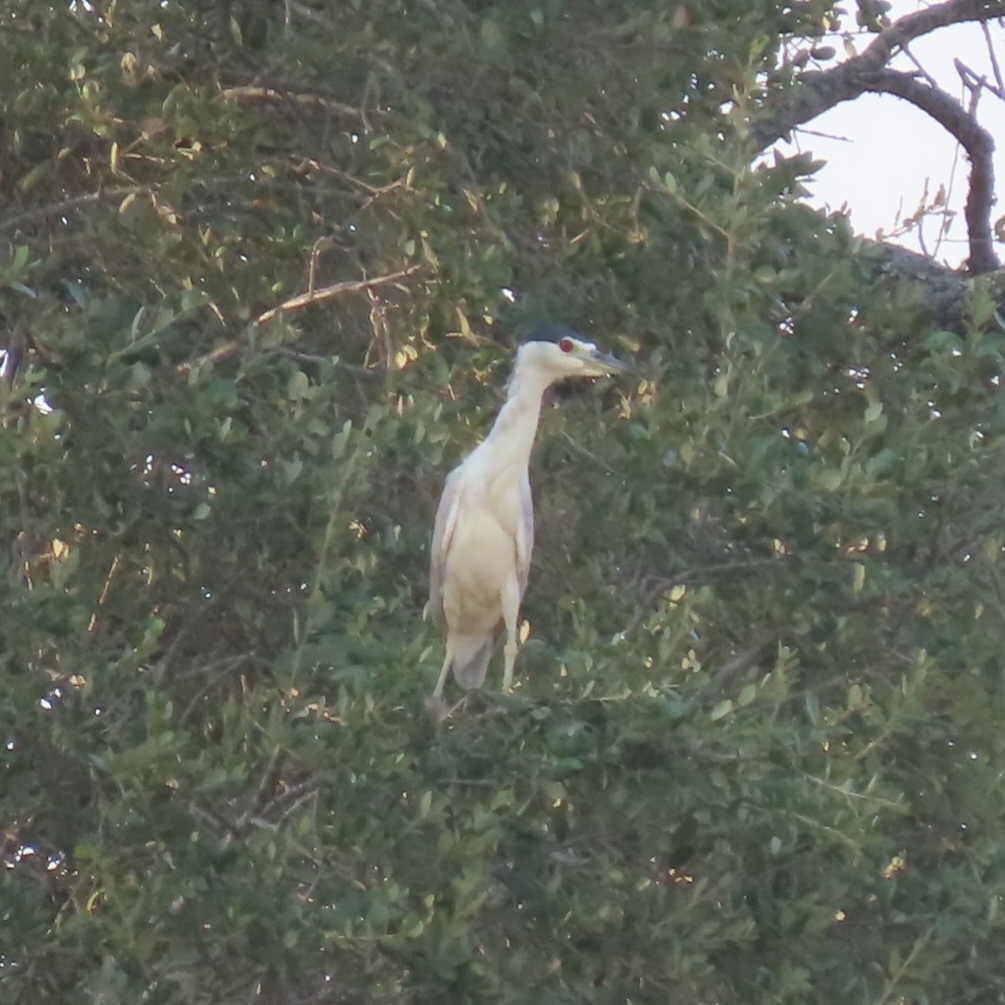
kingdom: Animalia
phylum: Chordata
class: Aves
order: Pelecaniformes
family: Ardeidae
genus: Nycticorax
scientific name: Nycticorax nycticorax
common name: Black-crowned night heron
